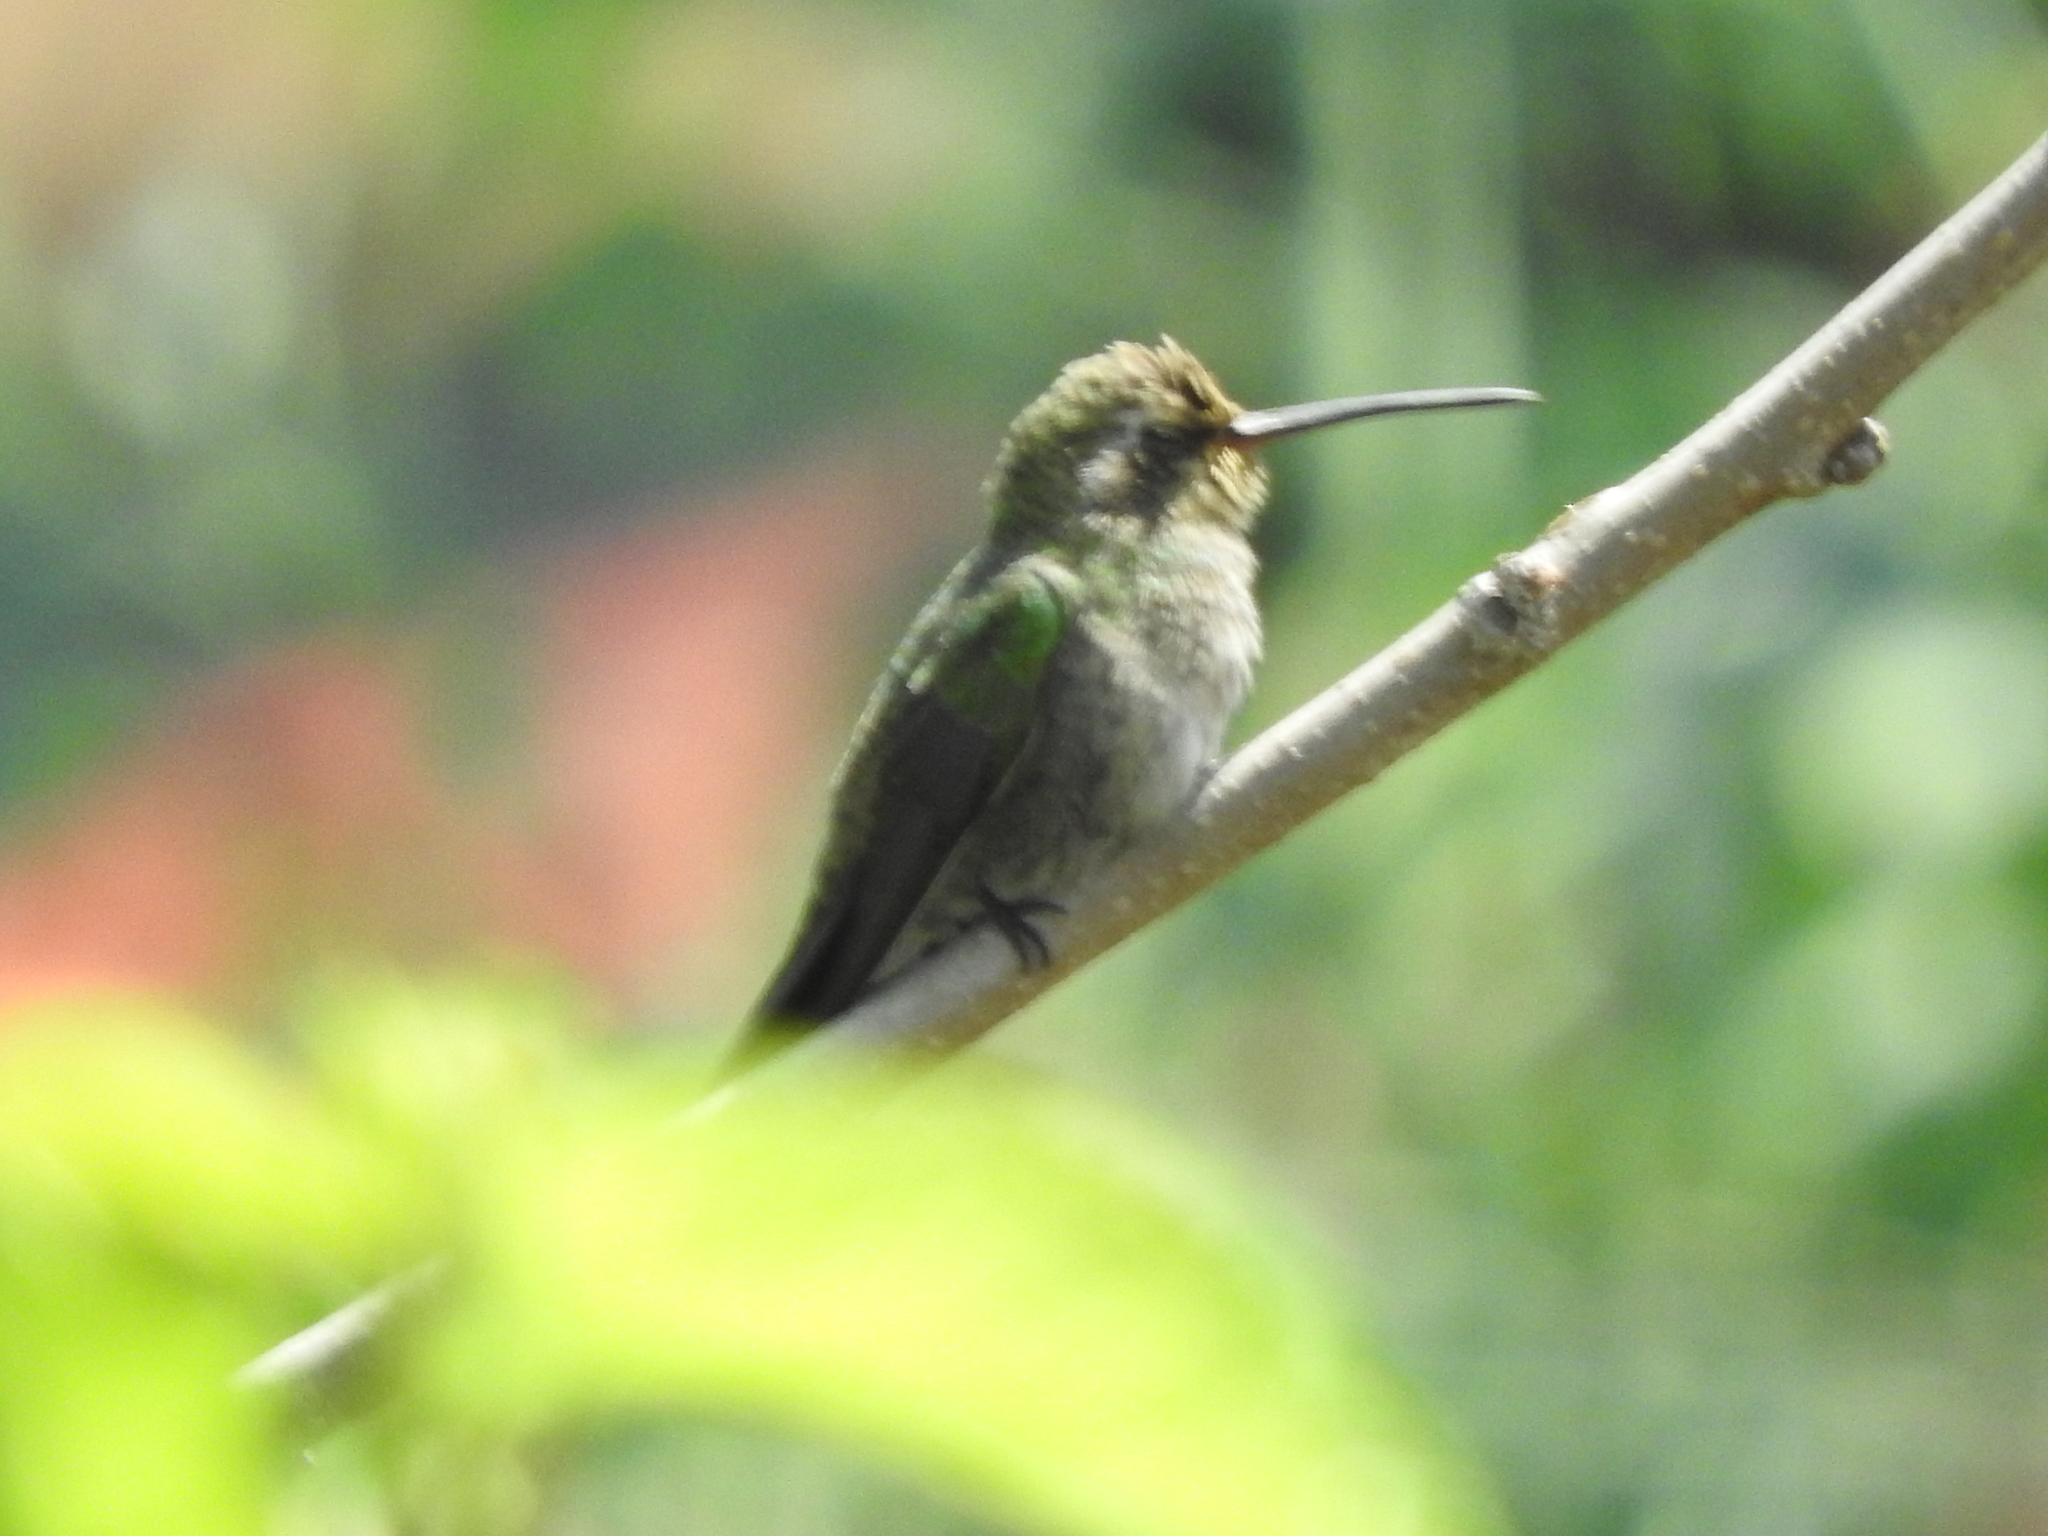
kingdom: Animalia
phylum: Chordata
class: Aves
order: Apodiformes
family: Trochilidae
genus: Cynanthus
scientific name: Cynanthus latirostris
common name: Broad-billed hummingbird
